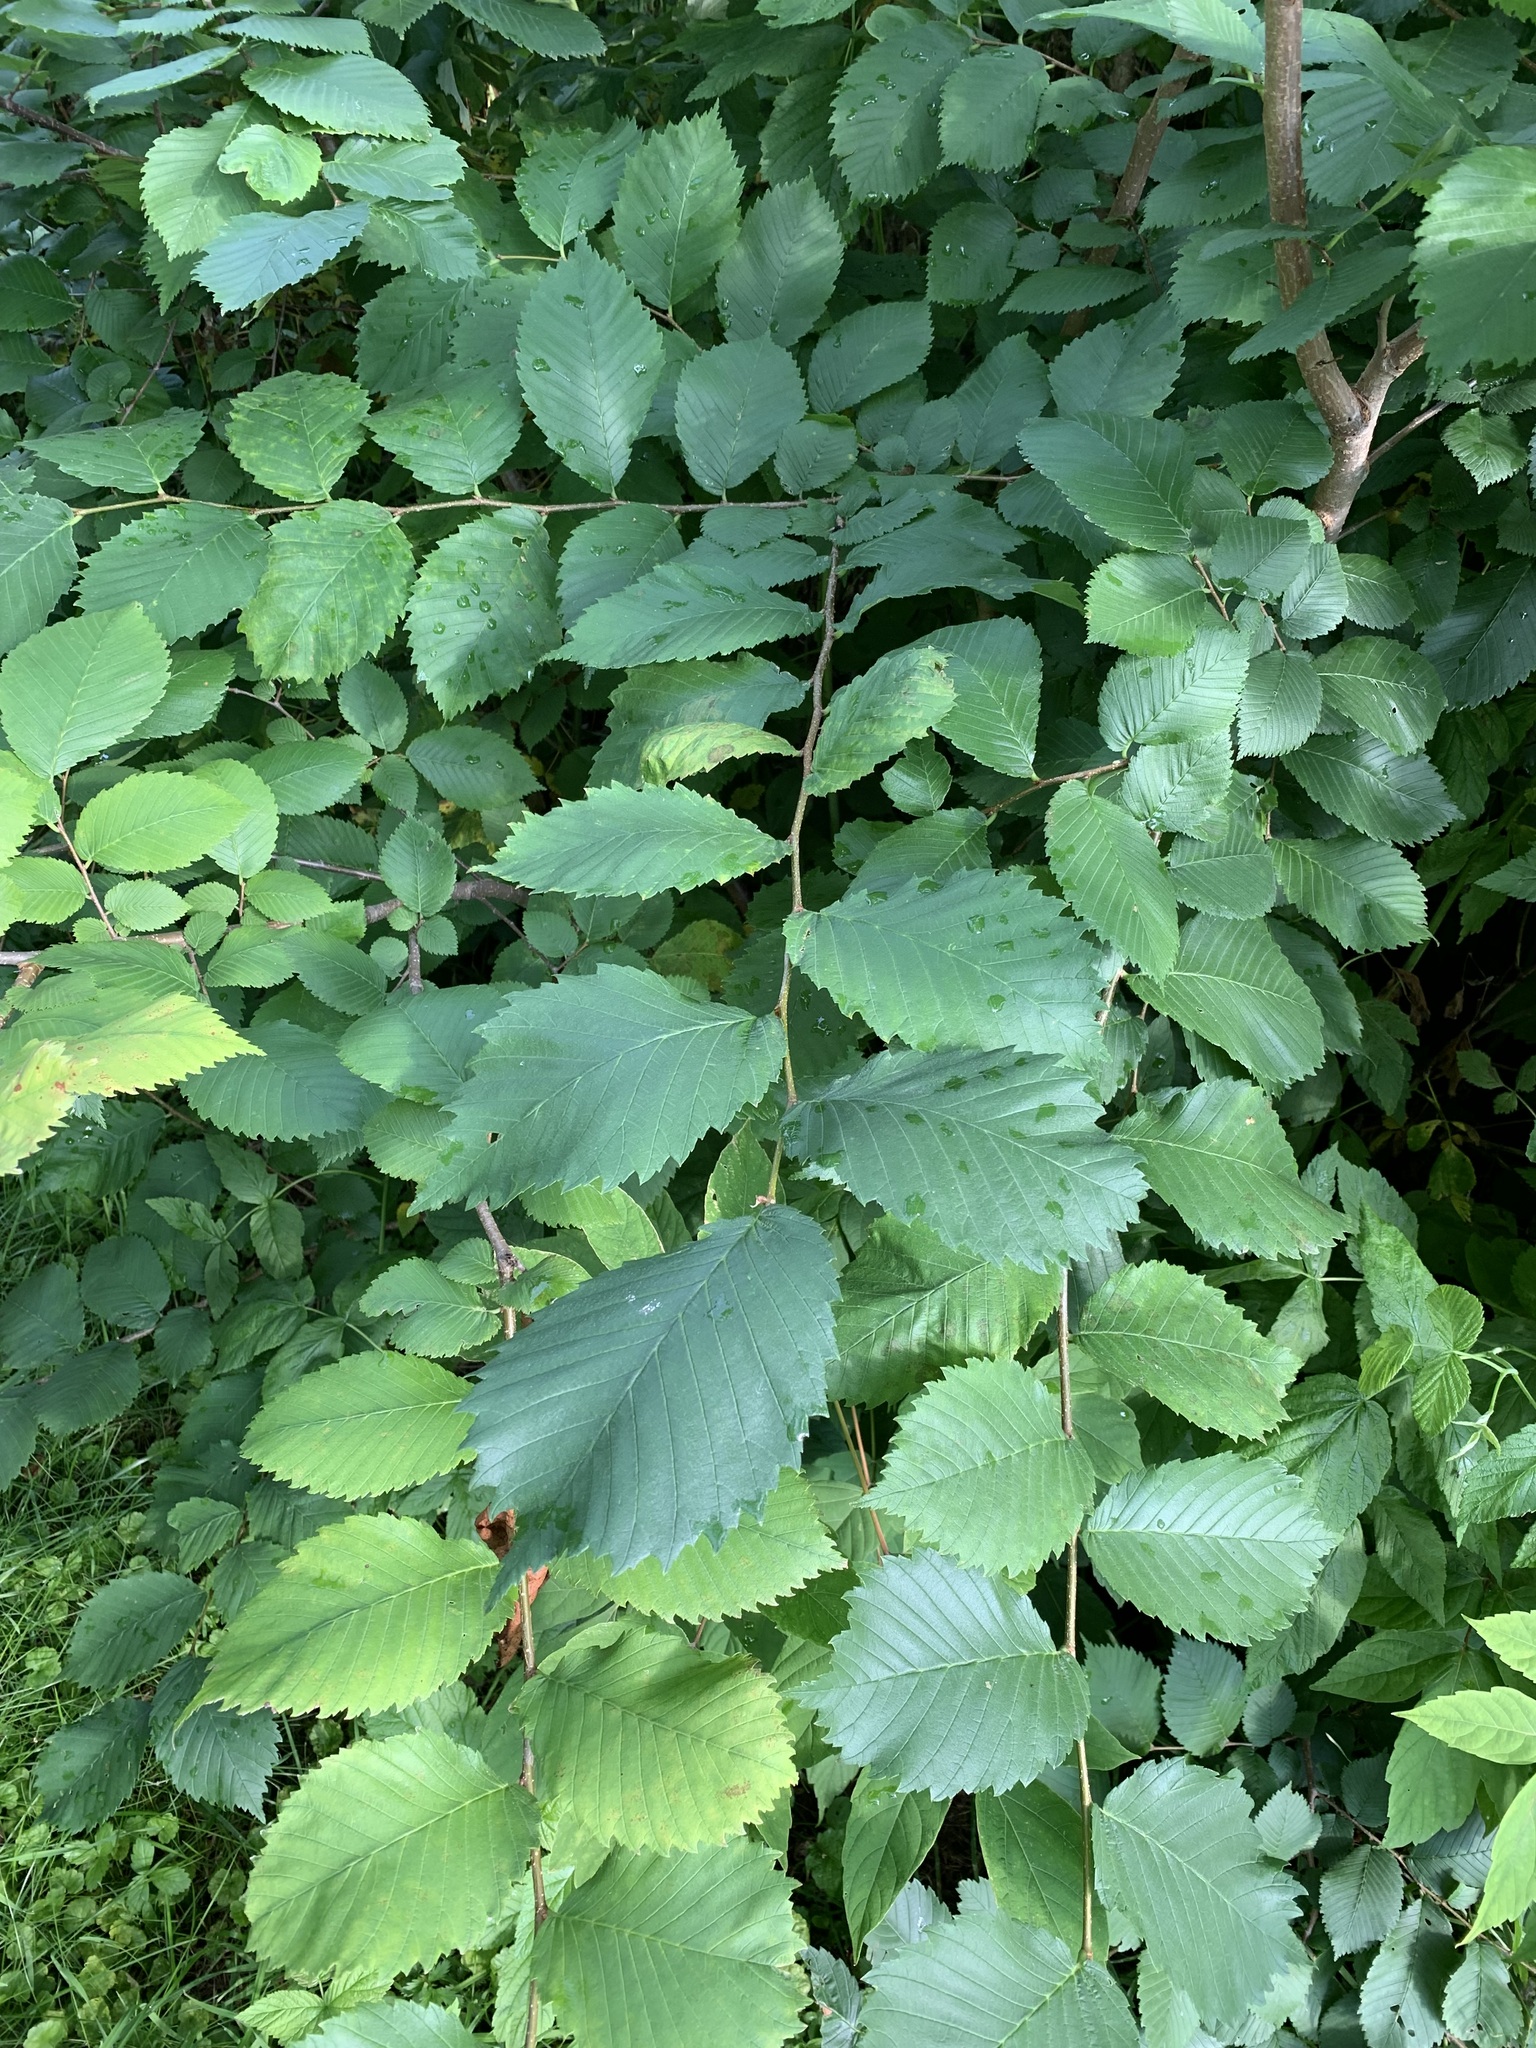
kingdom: Plantae
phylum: Tracheophyta
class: Magnoliopsida
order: Rosales
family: Ulmaceae
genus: Ulmus
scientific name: Ulmus laevis
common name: European white-elm
